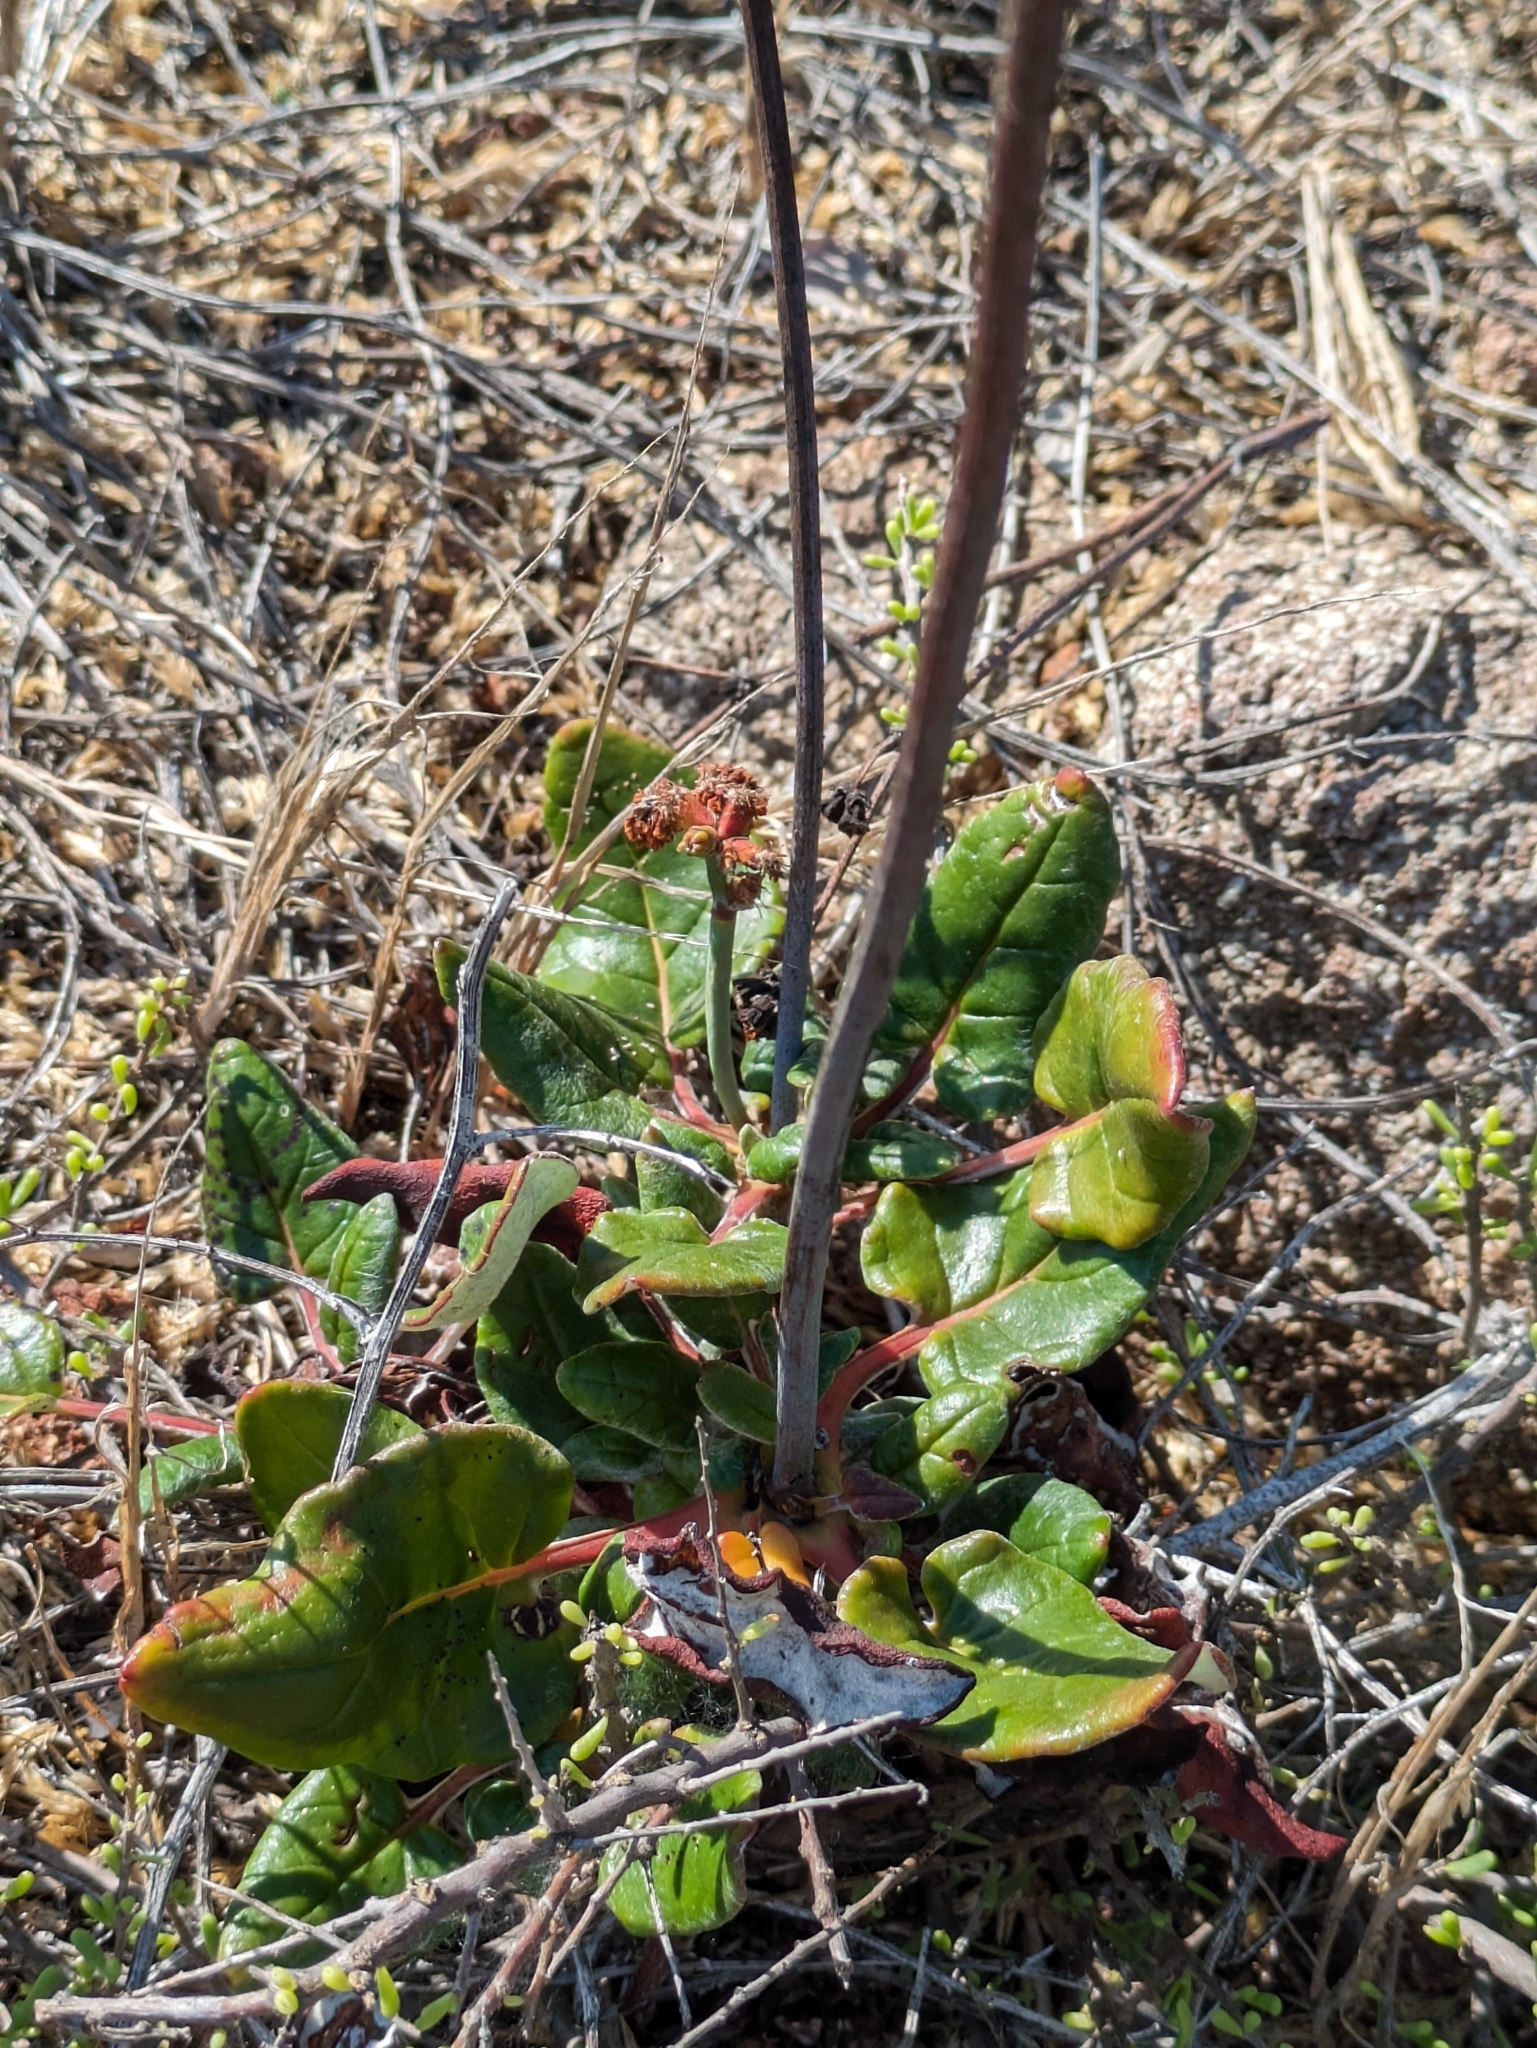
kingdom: Plantae
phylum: Tracheophyta
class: Magnoliopsida
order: Caryophyllales
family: Polygonaceae
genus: Eriogonum
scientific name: Eriogonum grande
